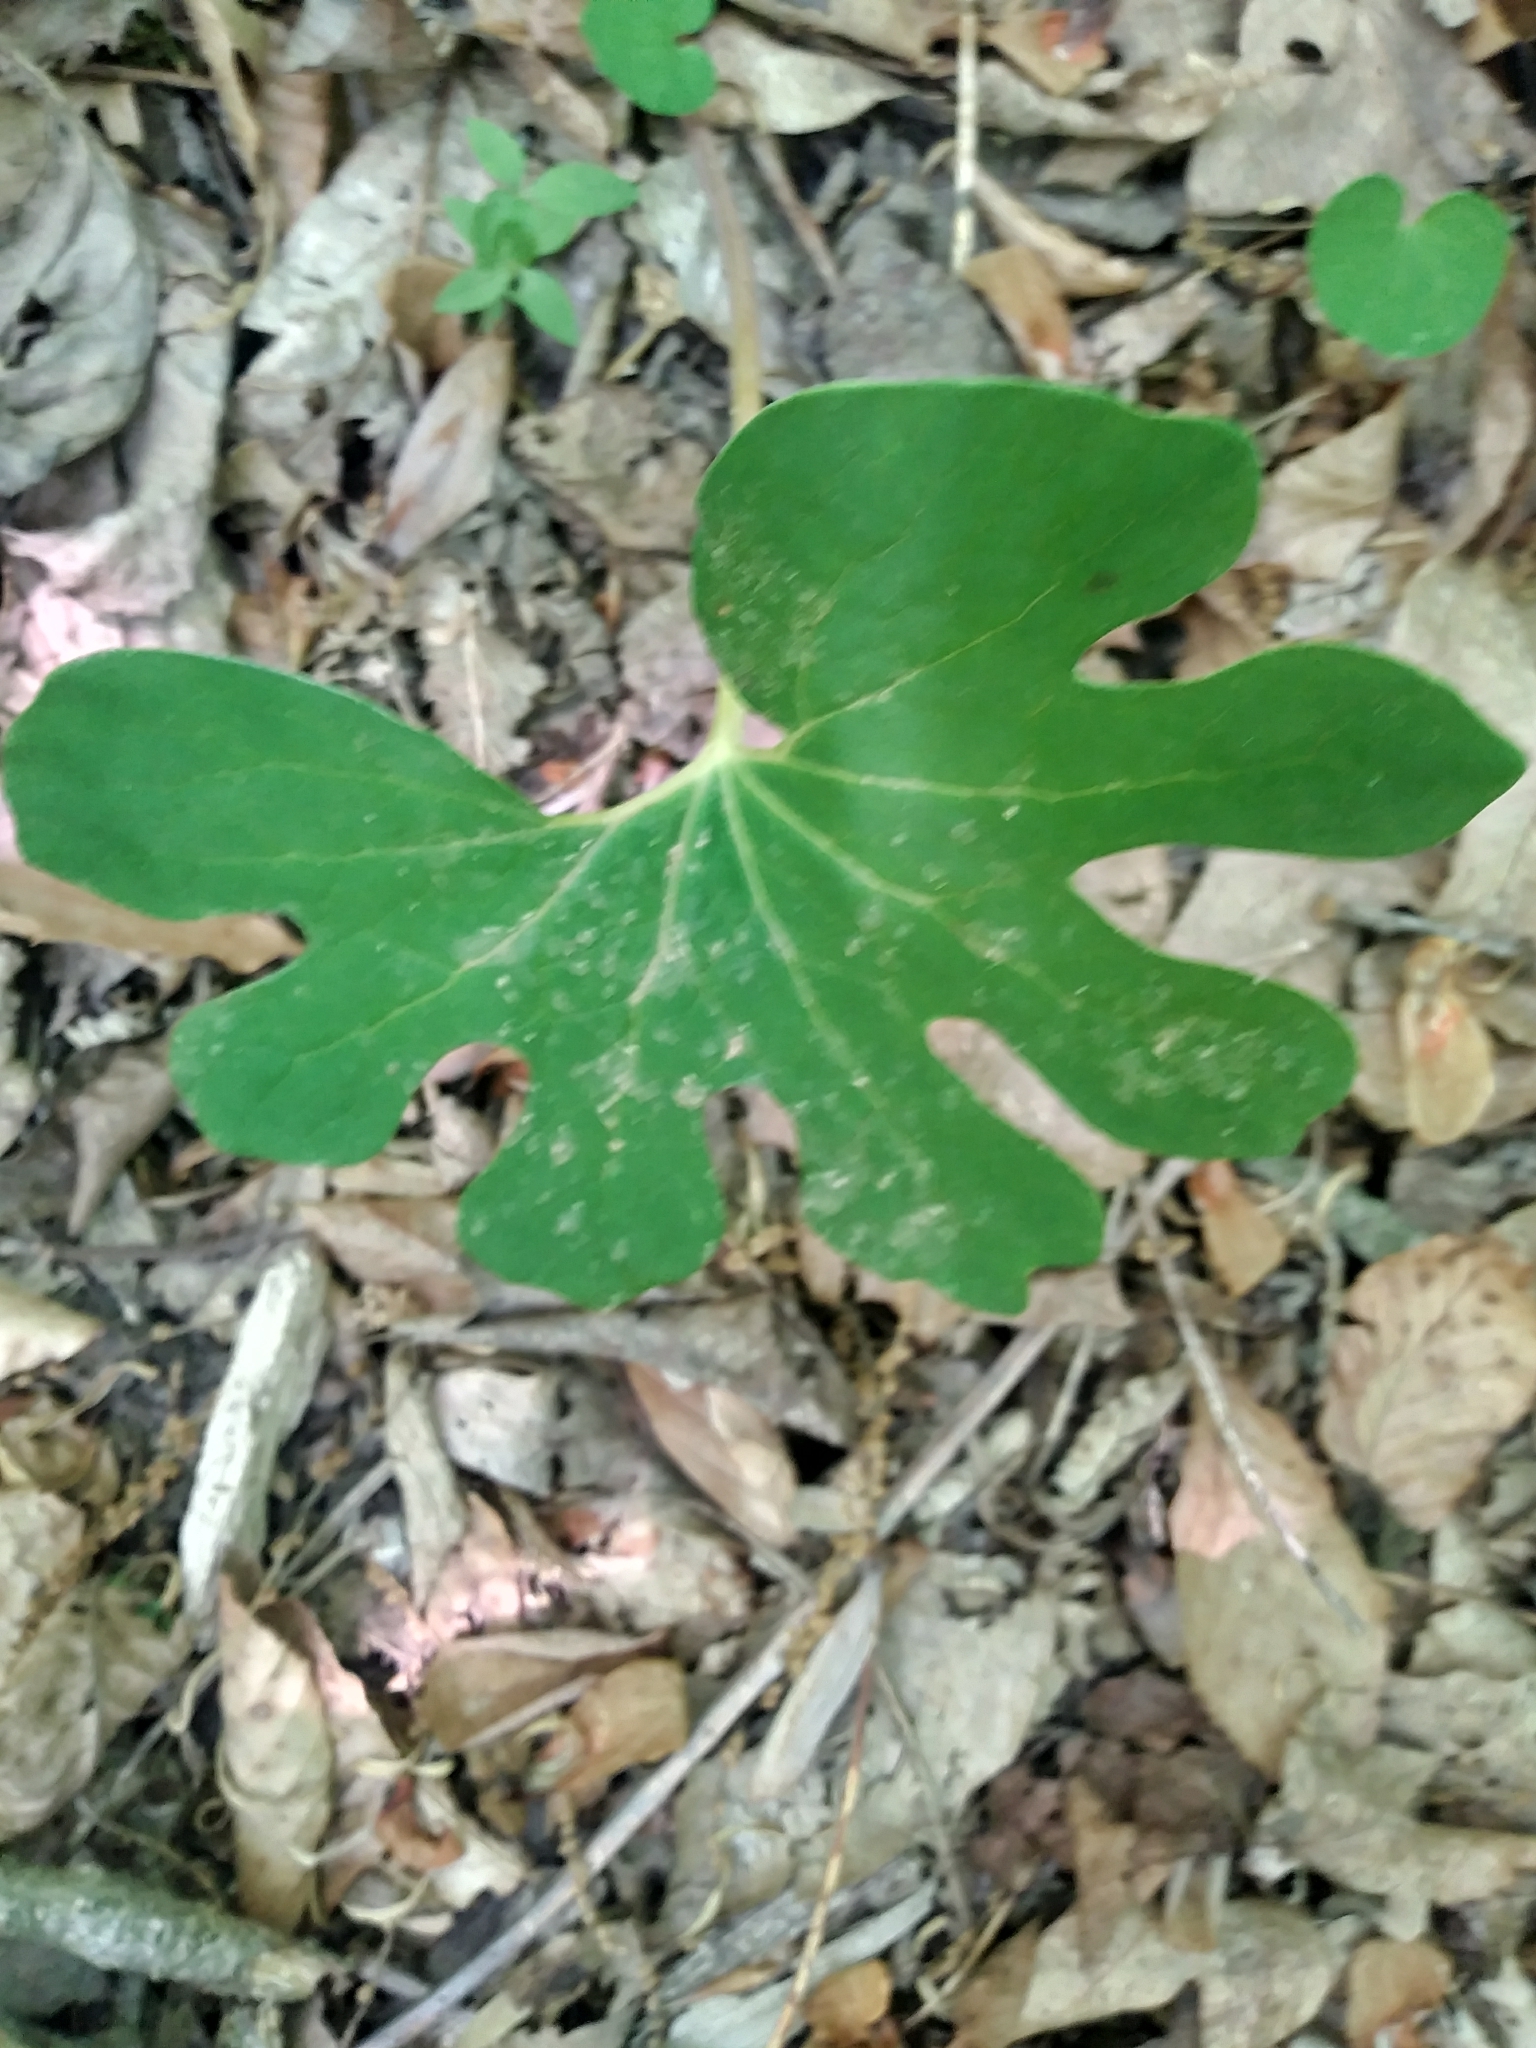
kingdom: Plantae
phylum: Tracheophyta
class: Magnoliopsida
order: Ranunculales
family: Papaveraceae
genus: Sanguinaria
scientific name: Sanguinaria canadensis
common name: Bloodroot
